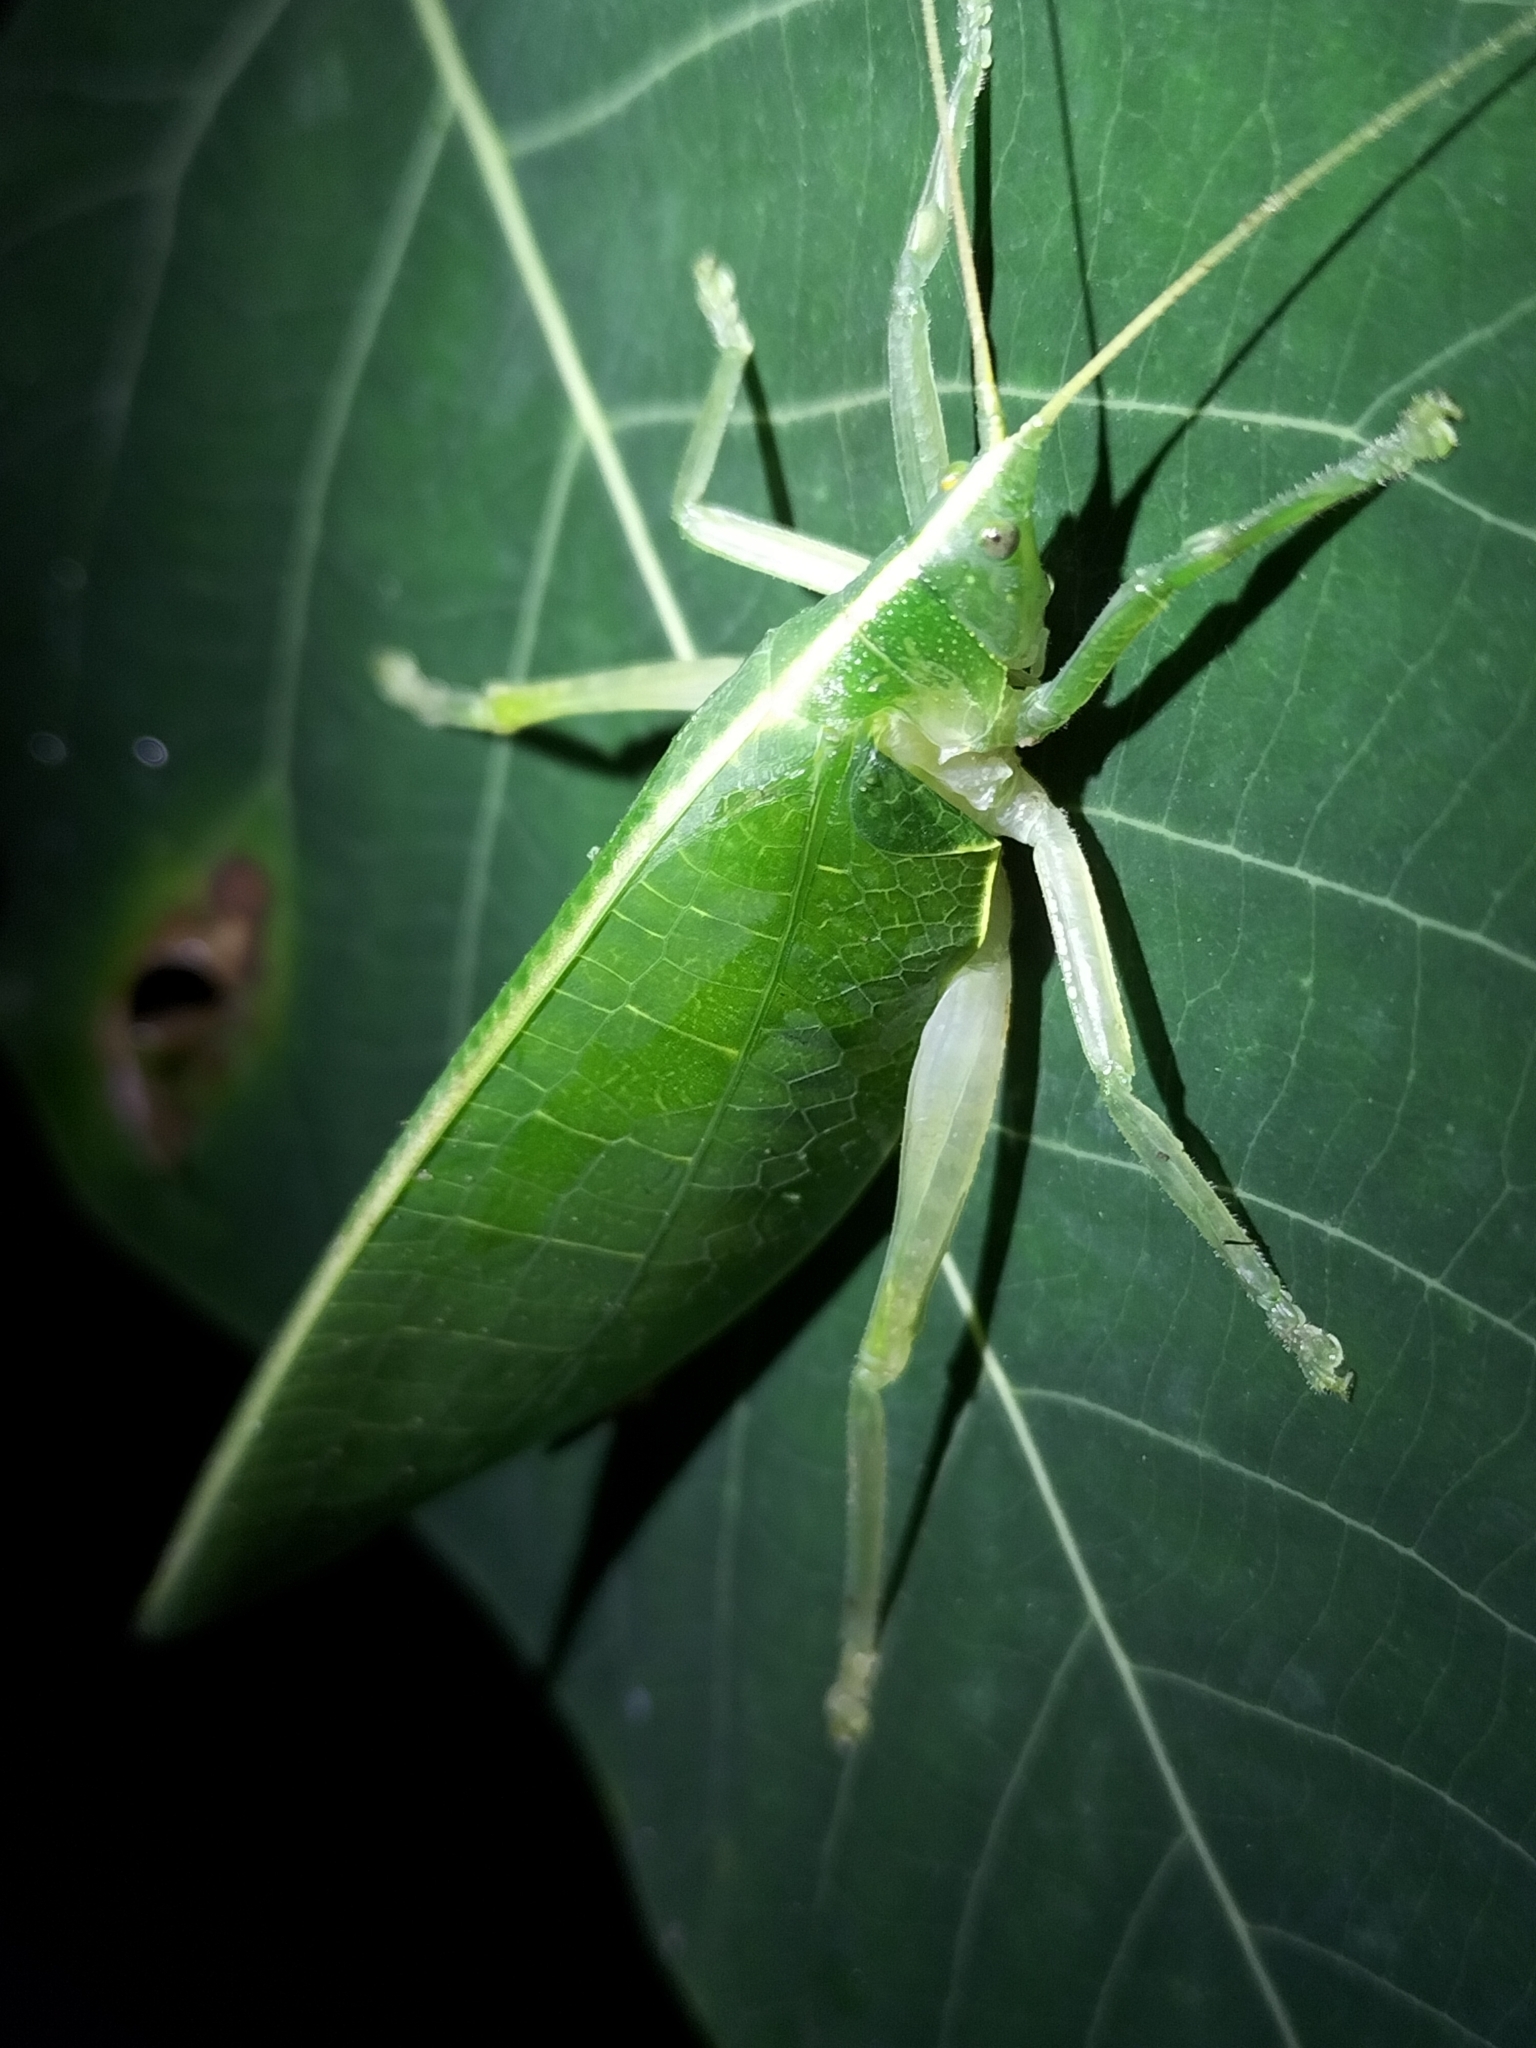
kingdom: Animalia
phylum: Arthropoda
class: Insecta
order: Orthoptera
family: Tettigoniidae
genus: Acauloplacella
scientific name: Acauloplacella incisa
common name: Etched leaf mimic
